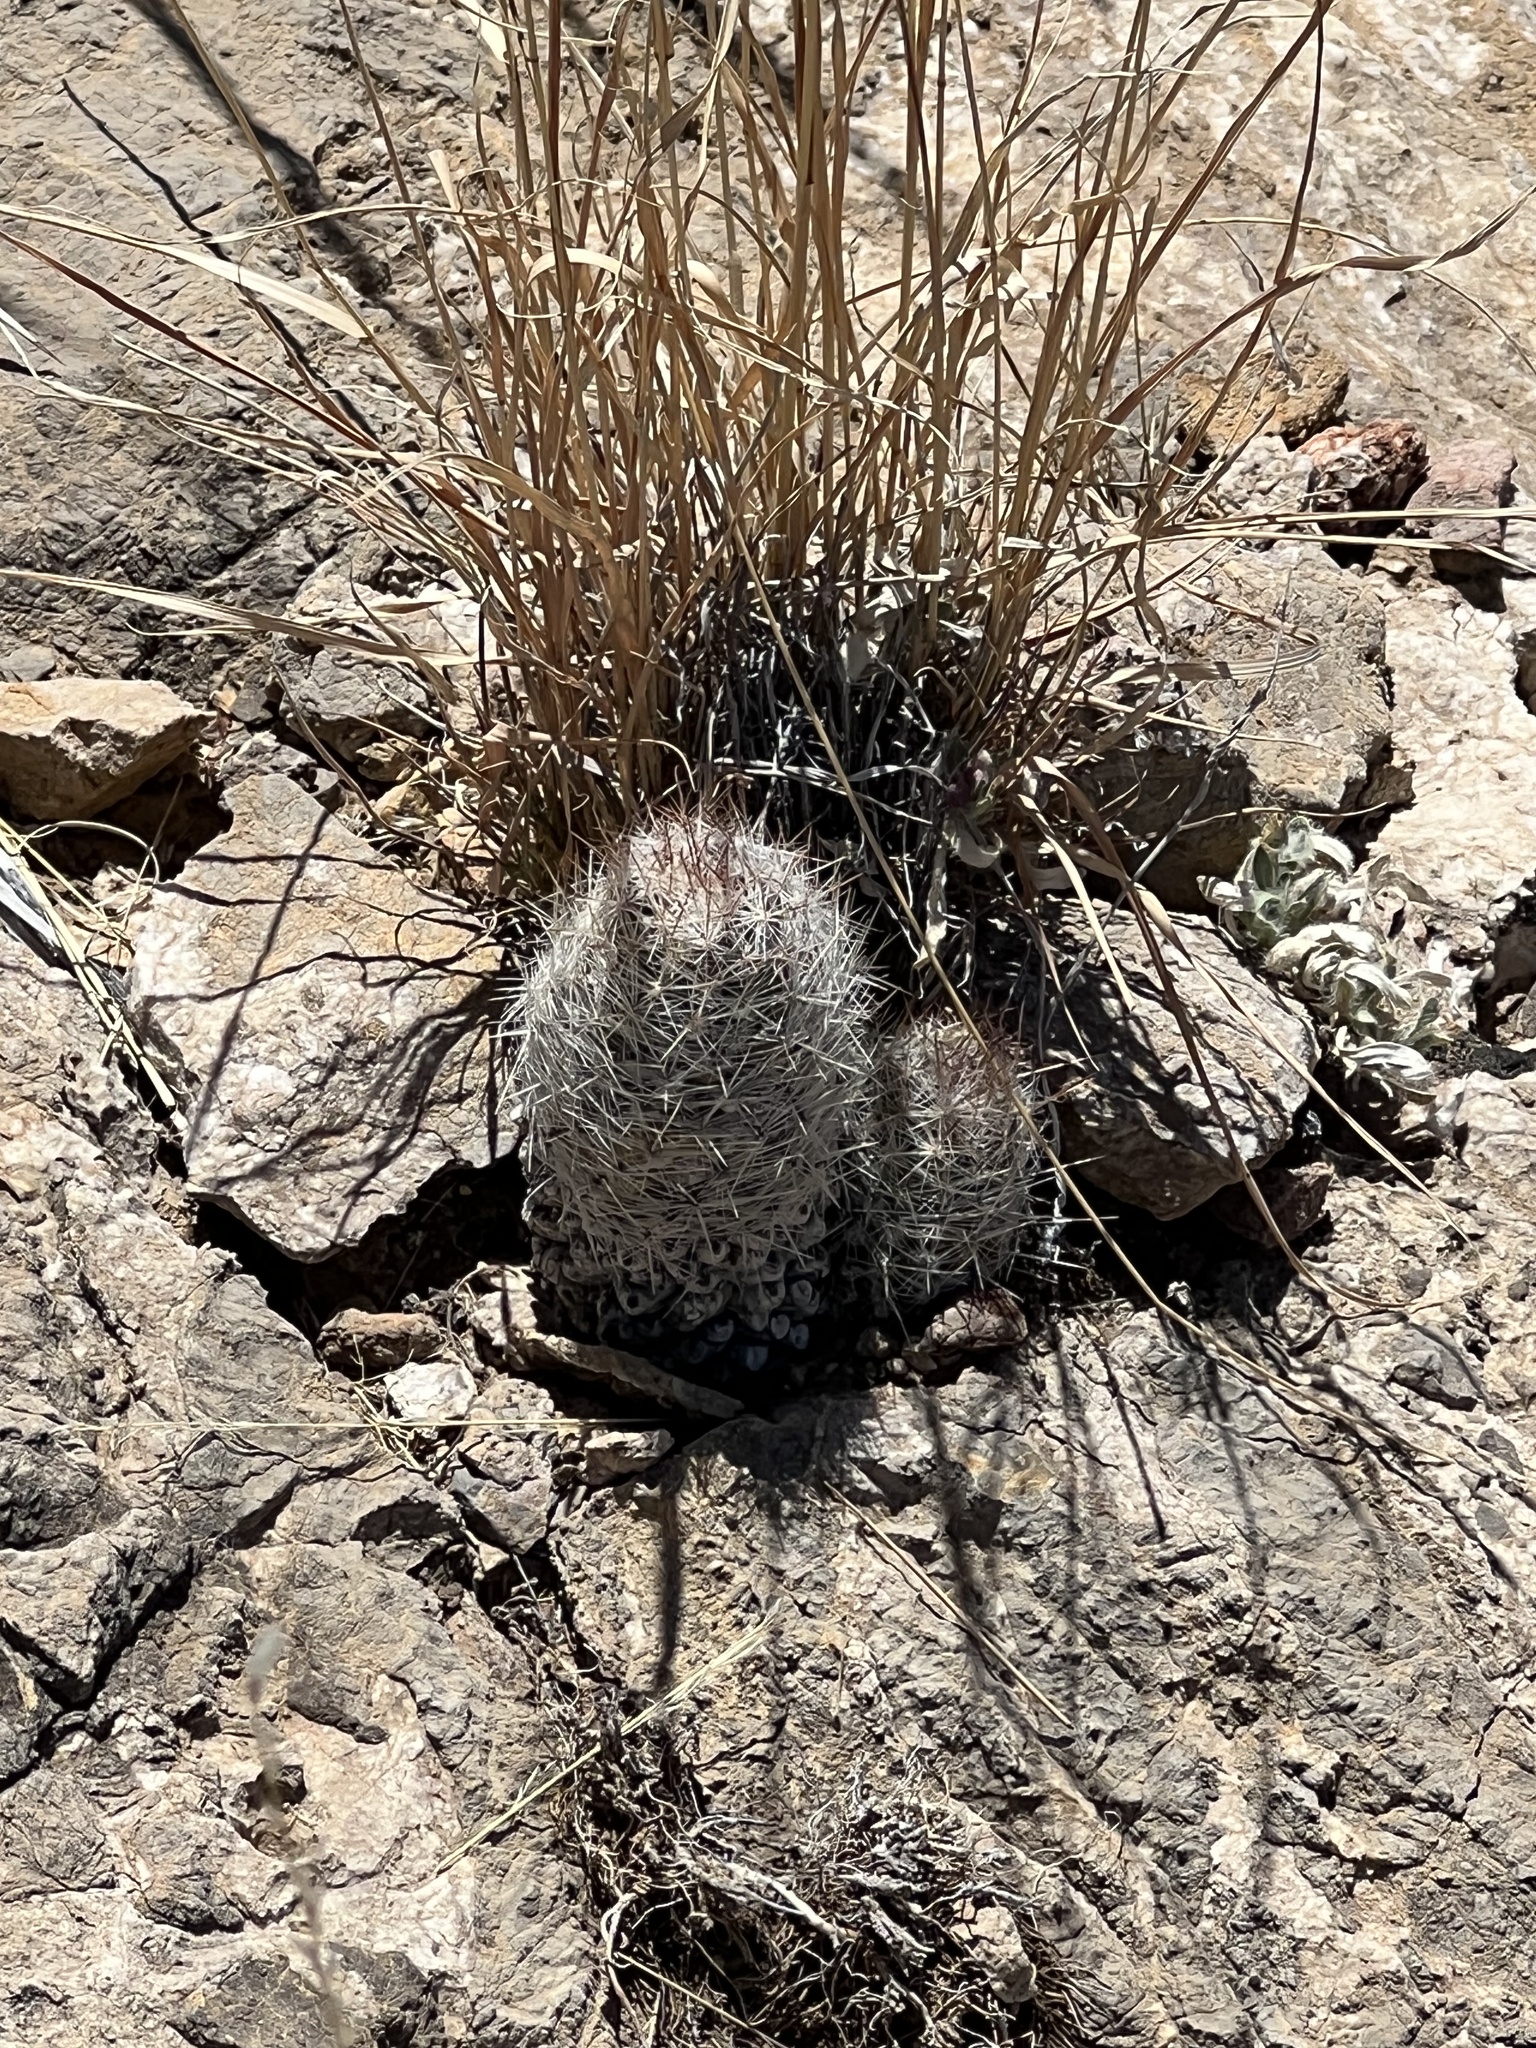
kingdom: Plantae
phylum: Tracheophyta
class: Magnoliopsida
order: Caryophyllales
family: Cactaceae
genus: Pelecyphora
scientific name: Pelecyphora tuberculosa
